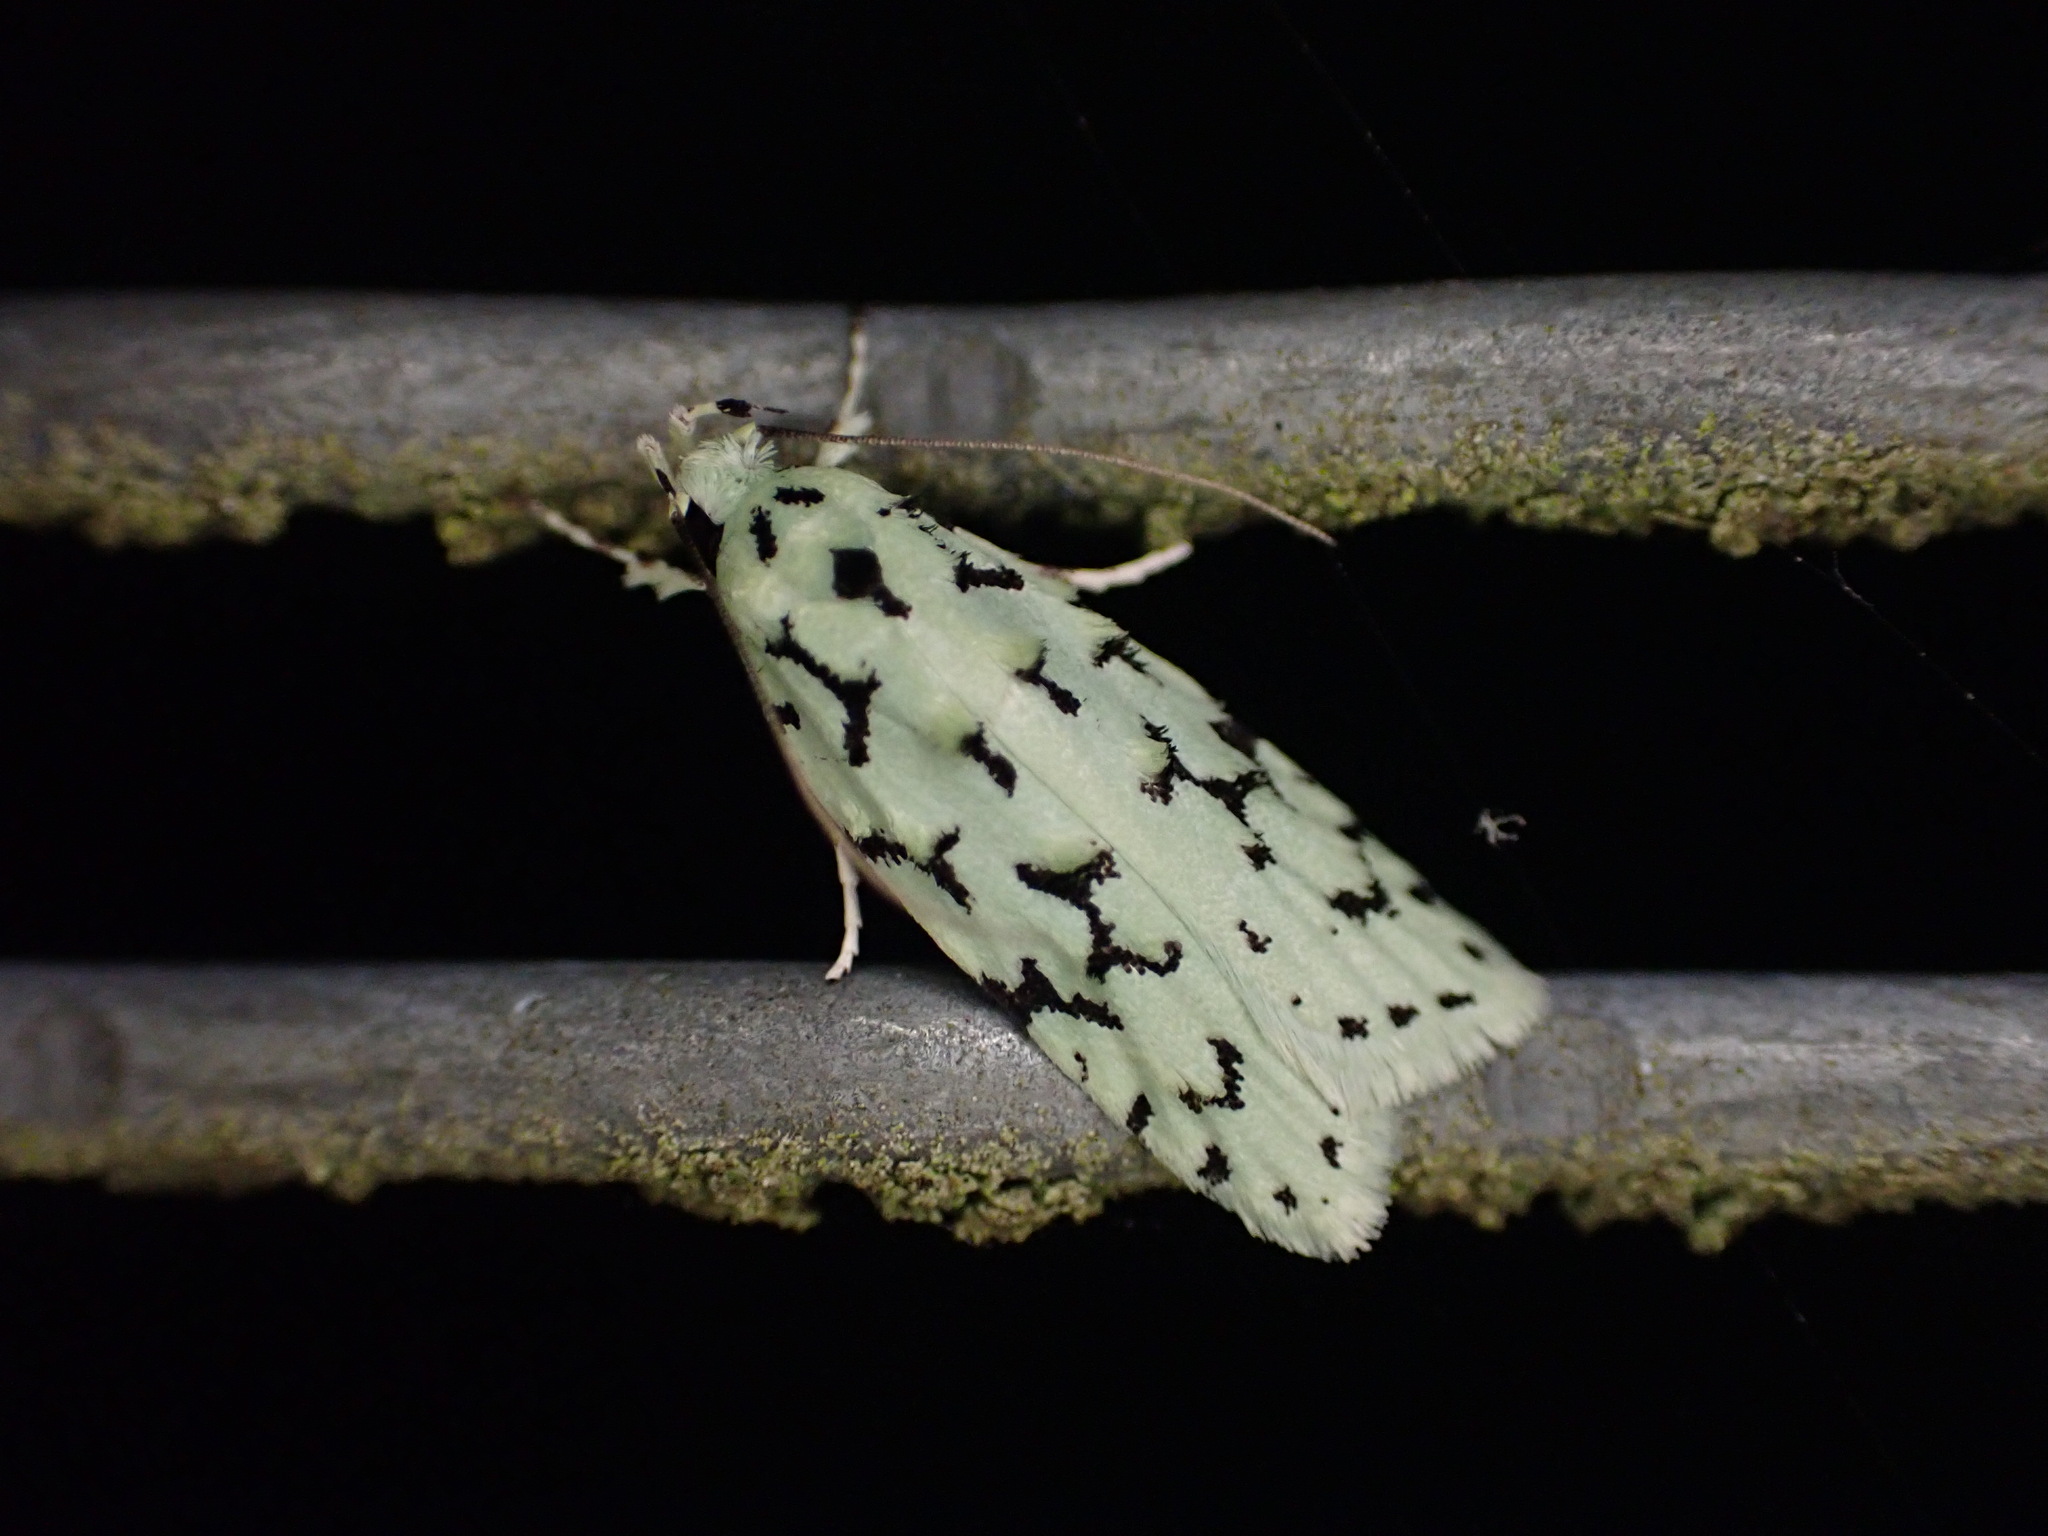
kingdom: Animalia
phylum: Arthropoda
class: Insecta
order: Lepidoptera
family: Oecophoridae
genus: Izatha
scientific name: Izatha huttoni
